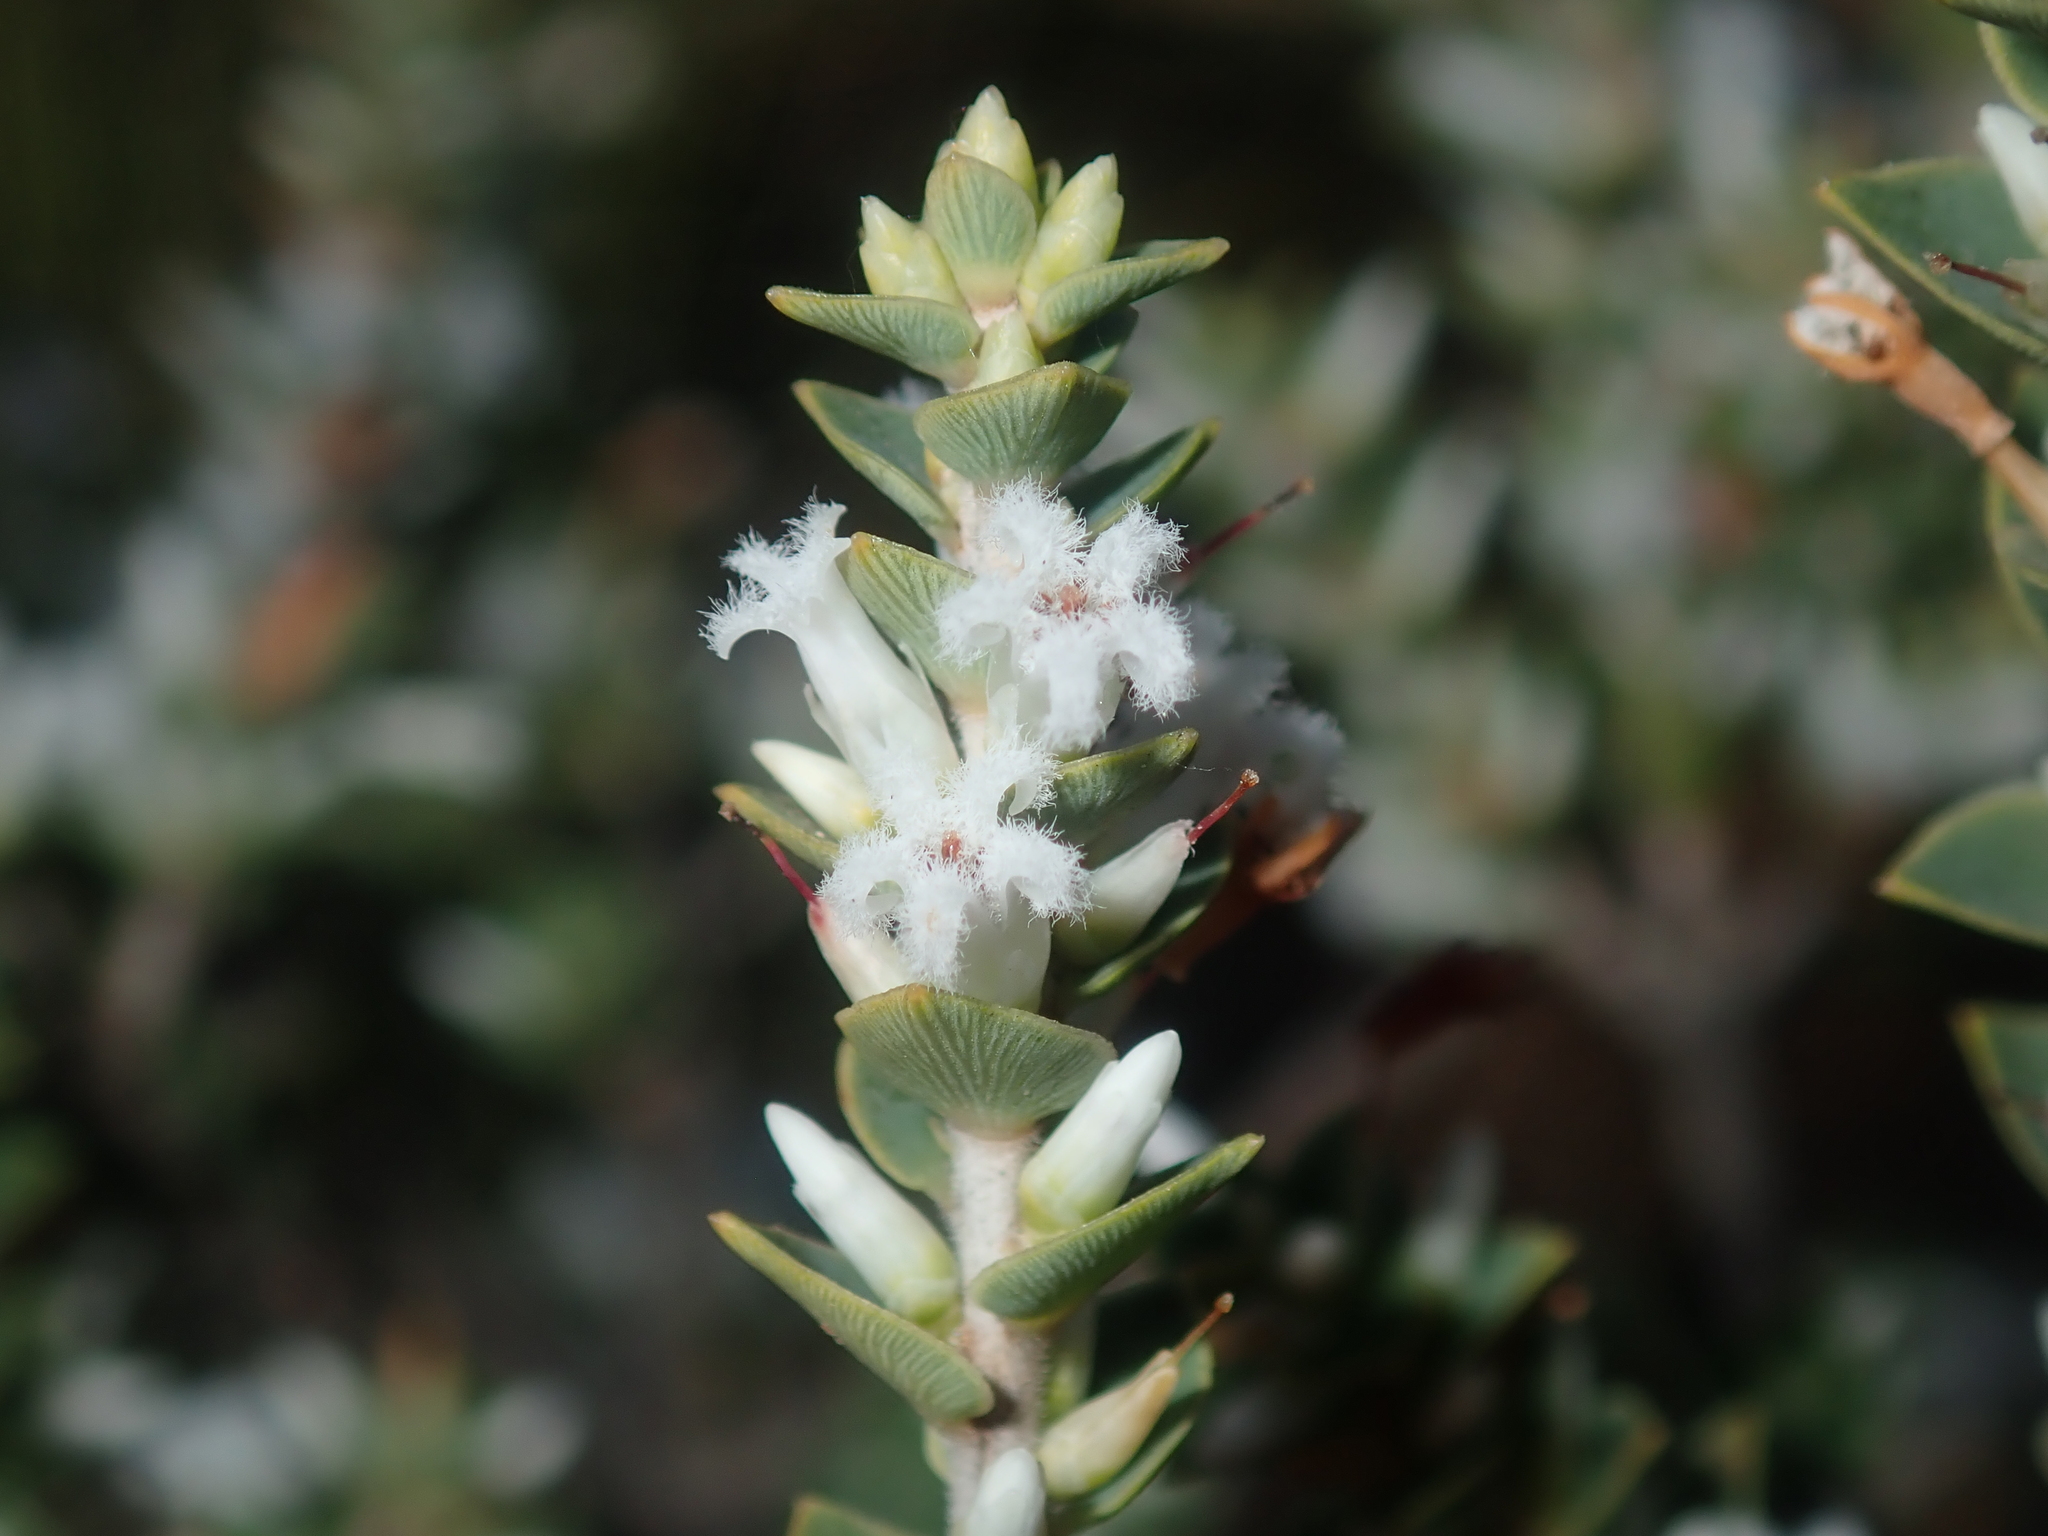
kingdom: Plantae
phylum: Tracheophyta
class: Magnoliopsida
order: Ericales
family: Ericaceae
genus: Styphelia
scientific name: Styphelia
